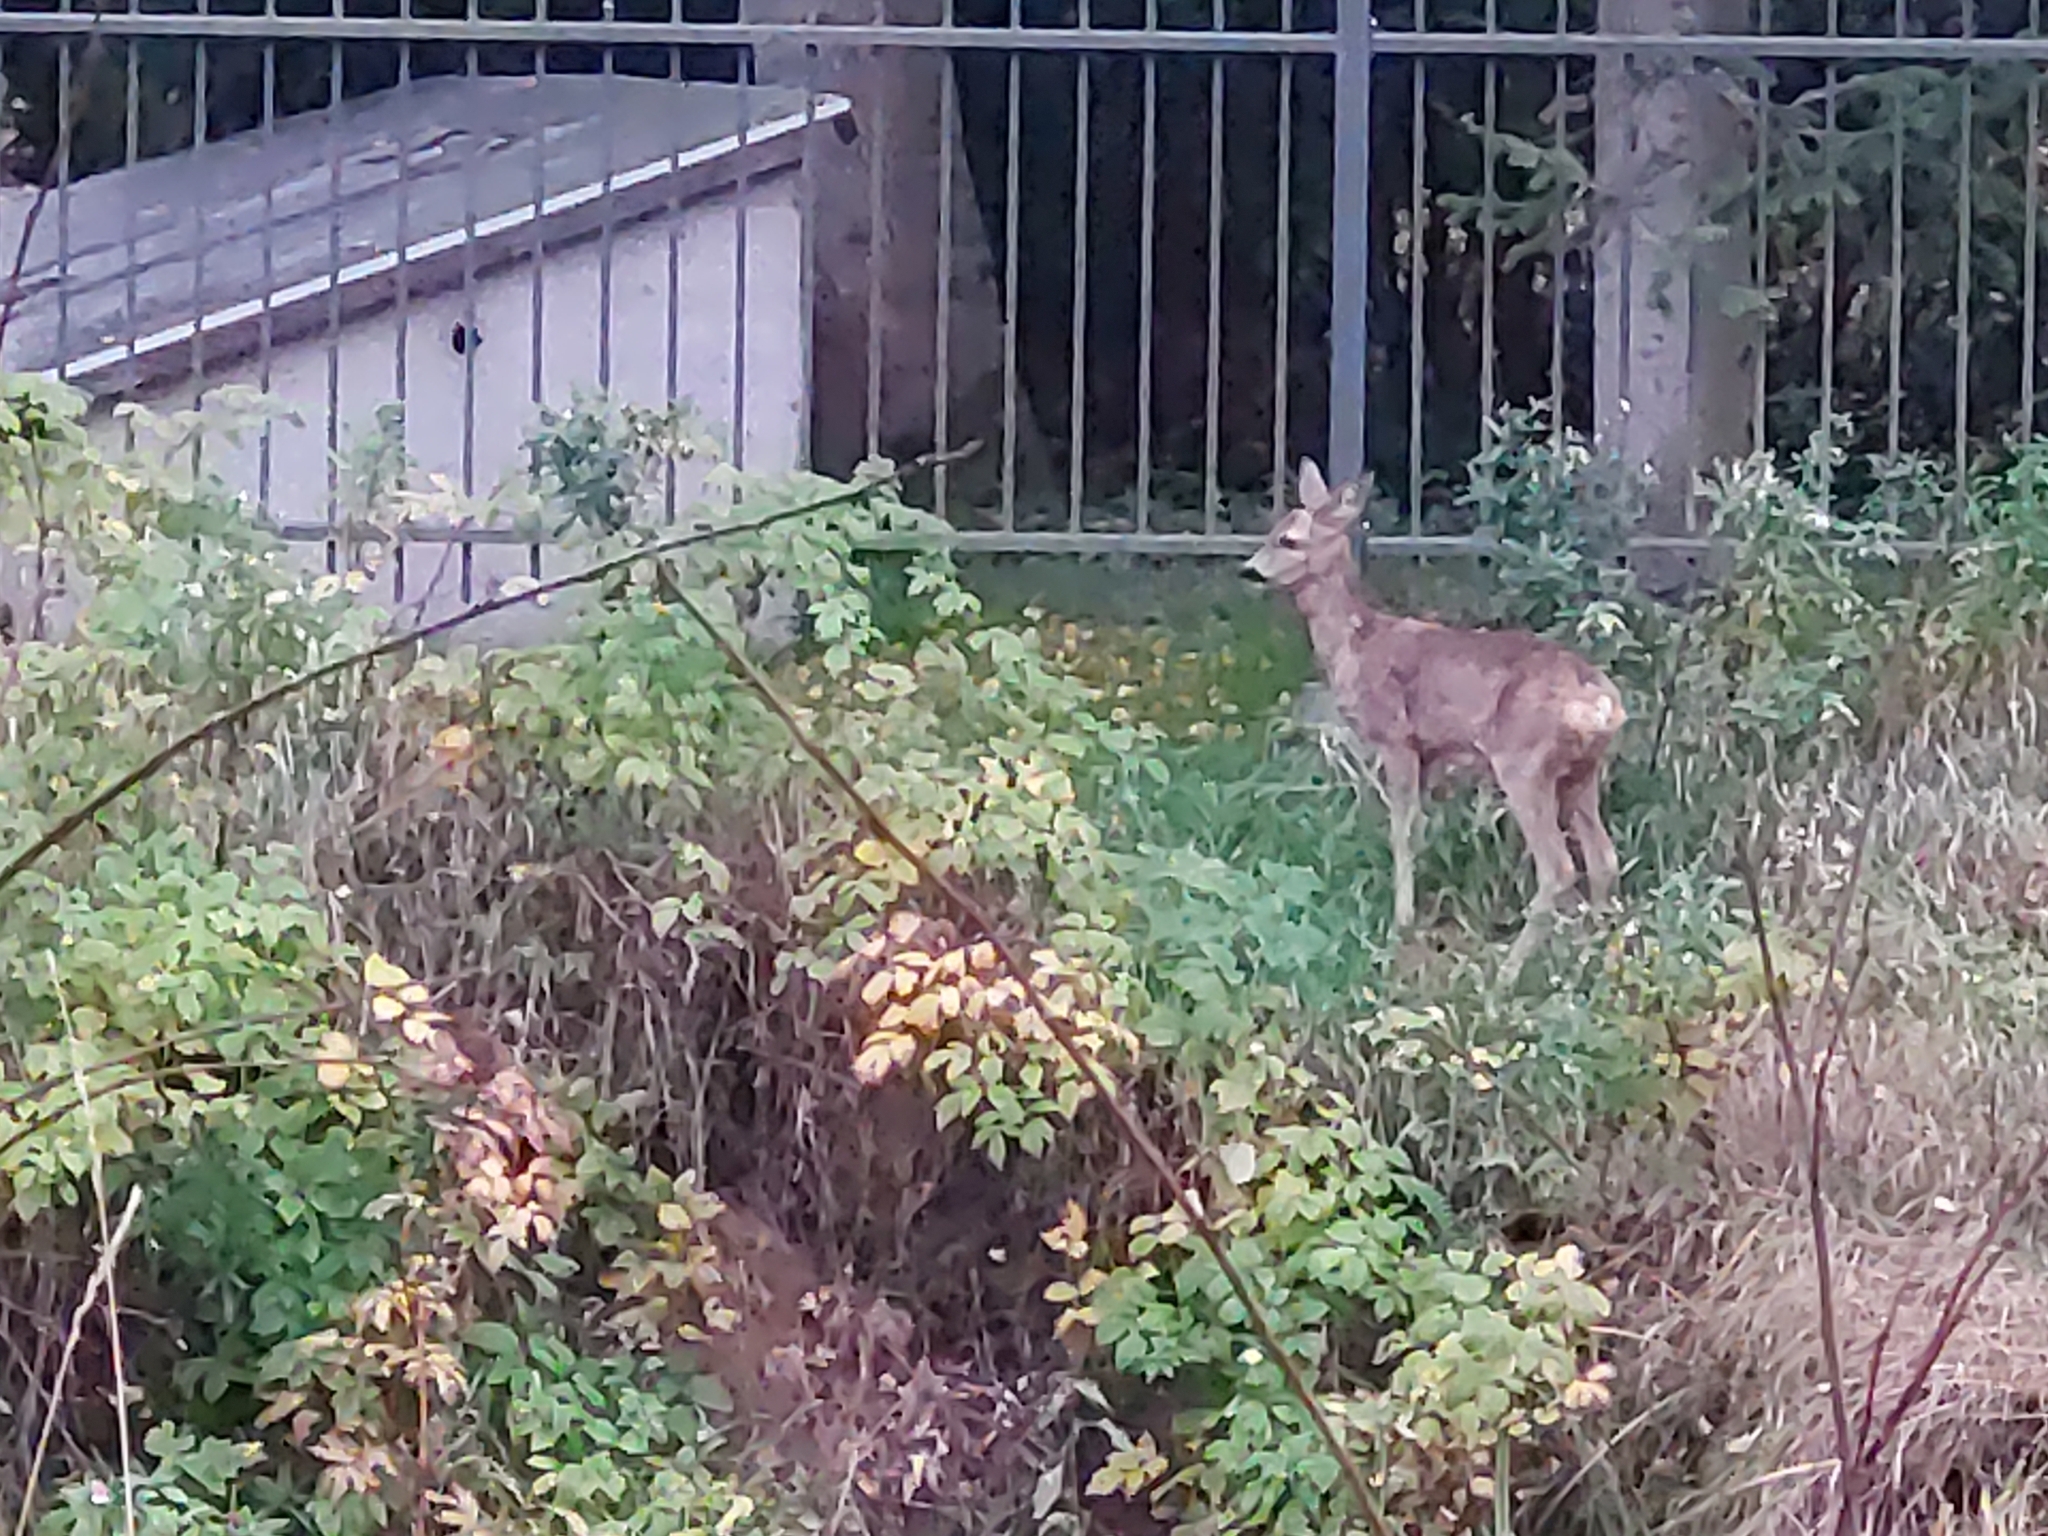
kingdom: Animalia
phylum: Chordata
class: Mammalia
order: Artiodactyla
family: Cervidae
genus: Capreolus
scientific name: Capreolus capreolus
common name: Western roe deer
